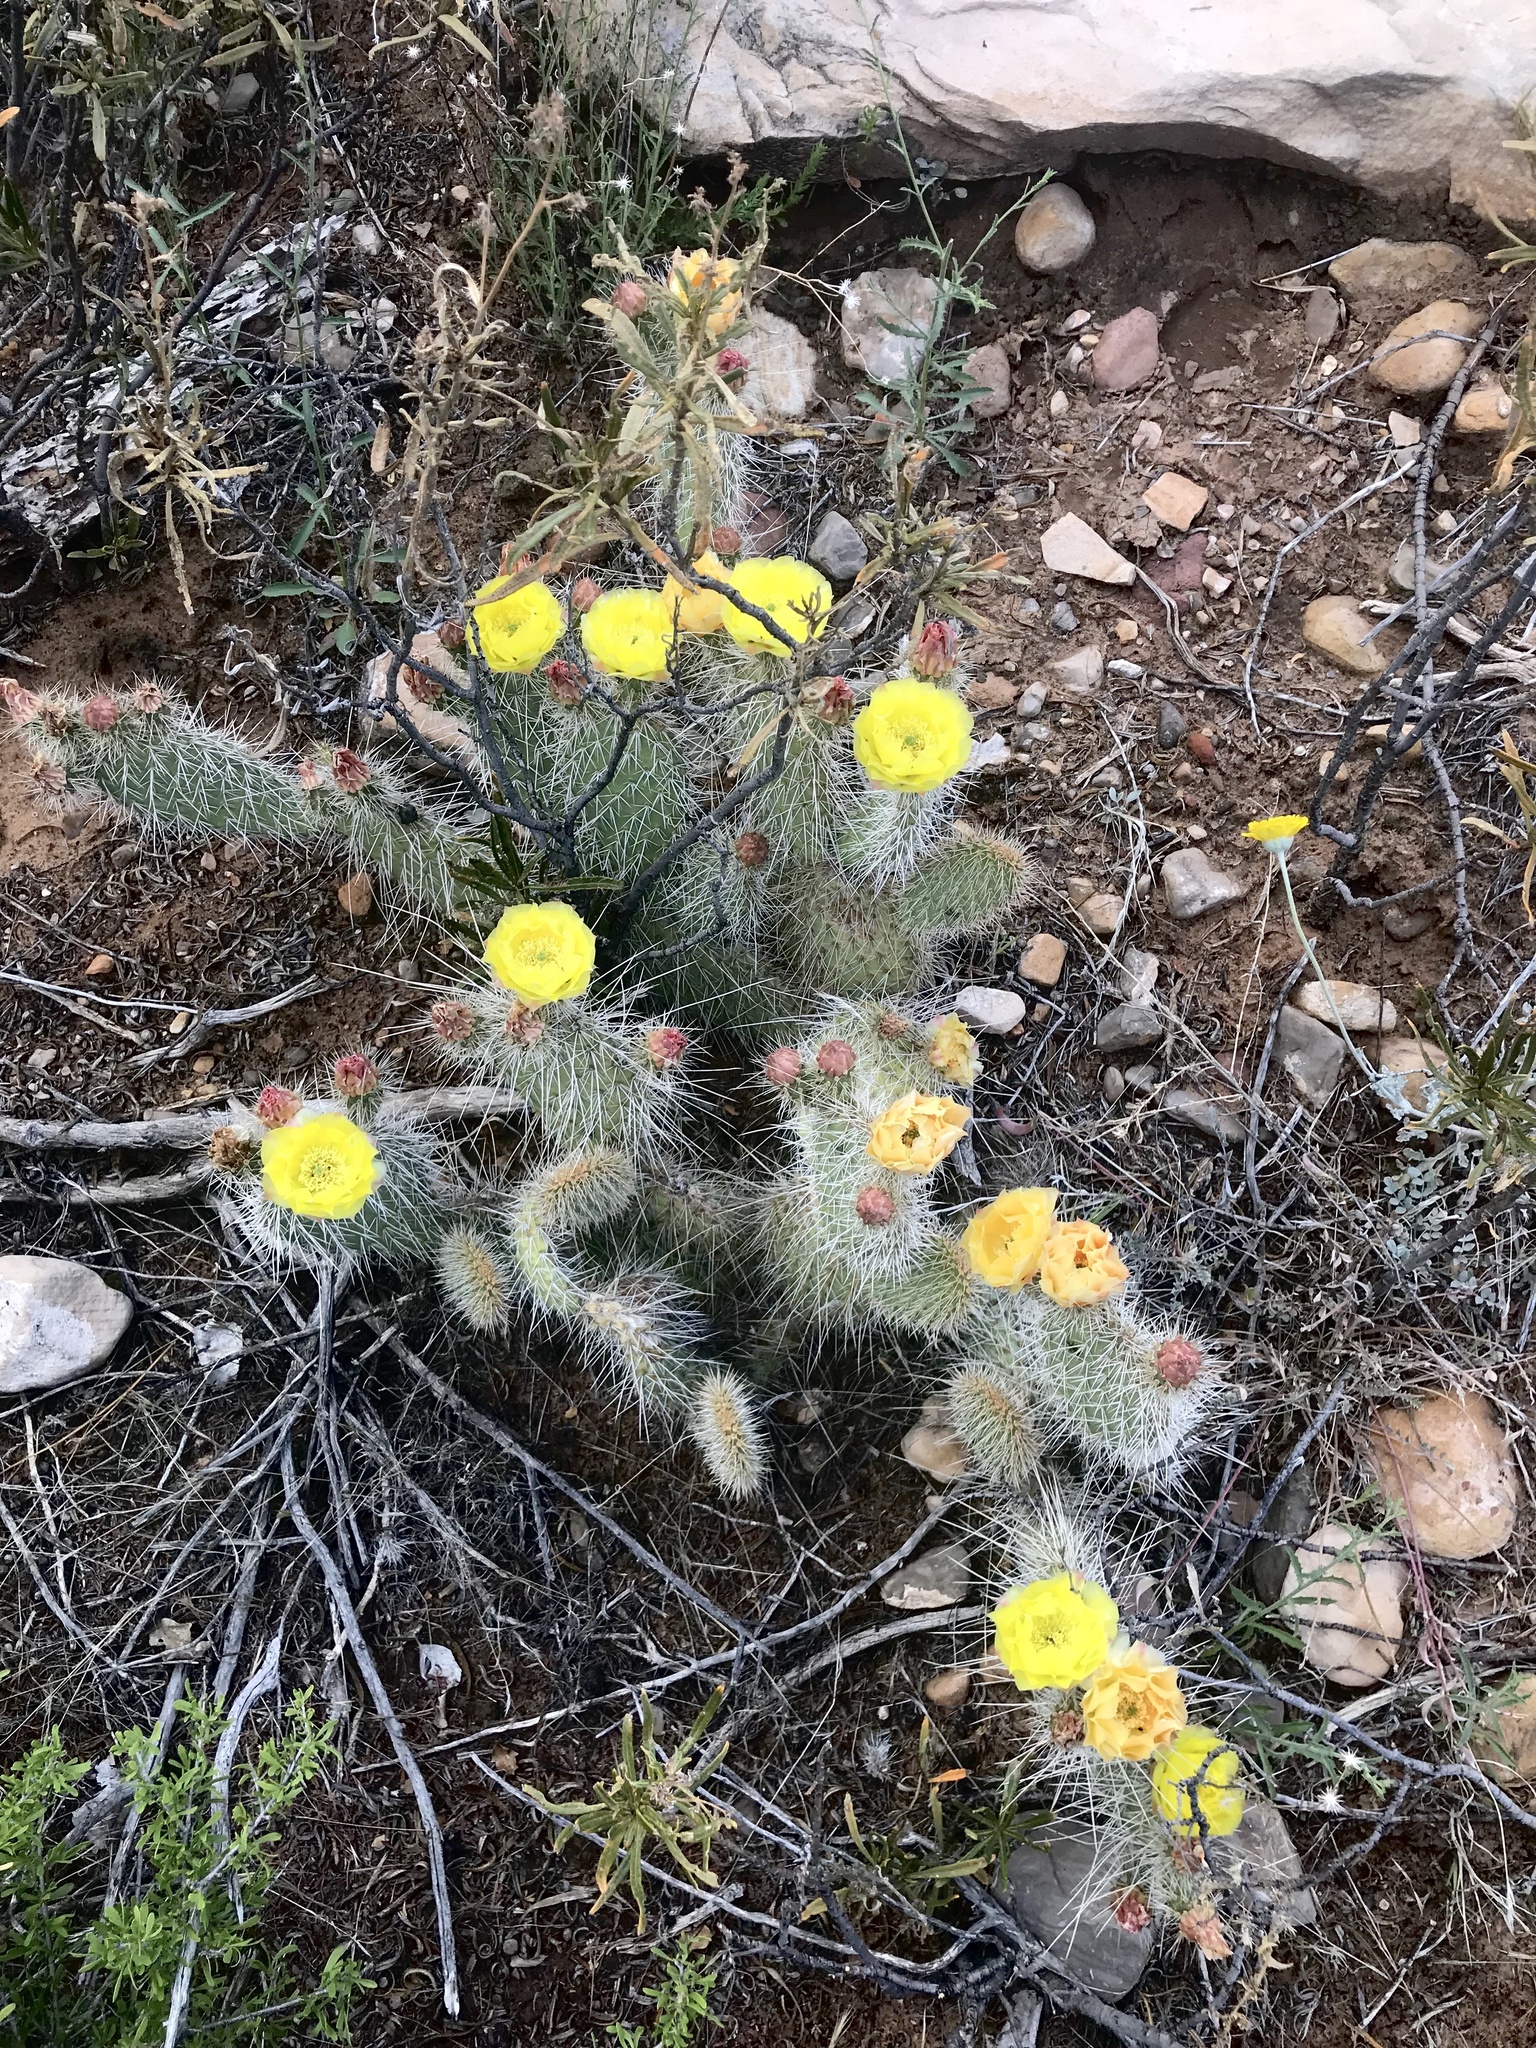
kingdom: Plantae
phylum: Tracheophyta
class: Magnoliopsida
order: Caryophyllales
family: Cactaceae
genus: Opuntia
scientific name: Opuntia polyacantha
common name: Plains prickly-pear
